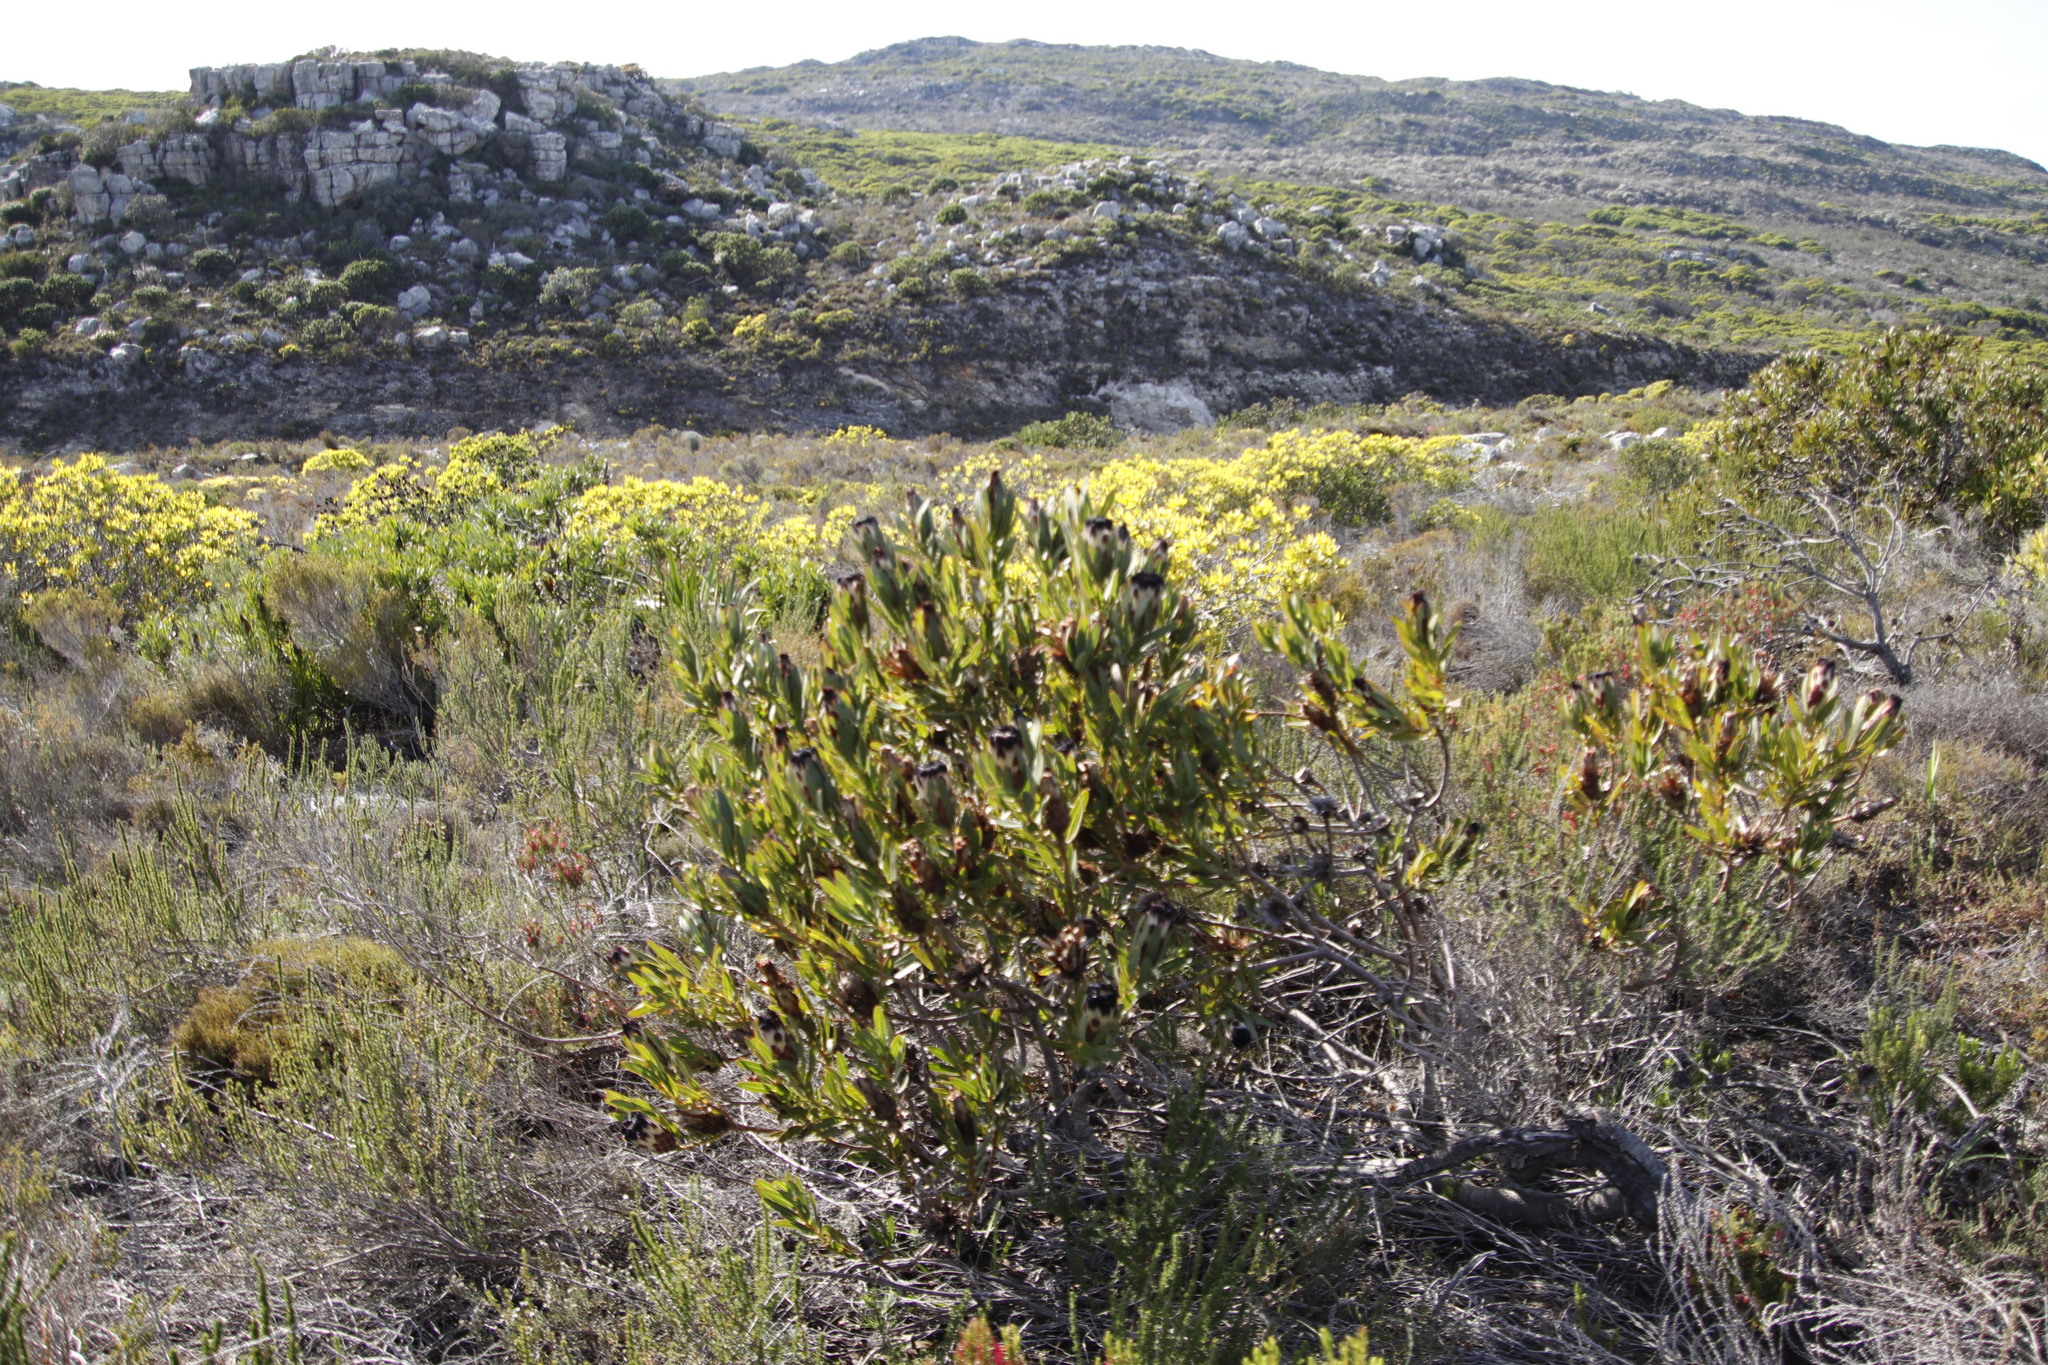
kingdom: Plantae
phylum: Tracheophyta
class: Magnoliopsida
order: Proteales
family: Proteaceae
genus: Protea
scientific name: Protea lepidocarpodendron
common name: Black-bearded protea
